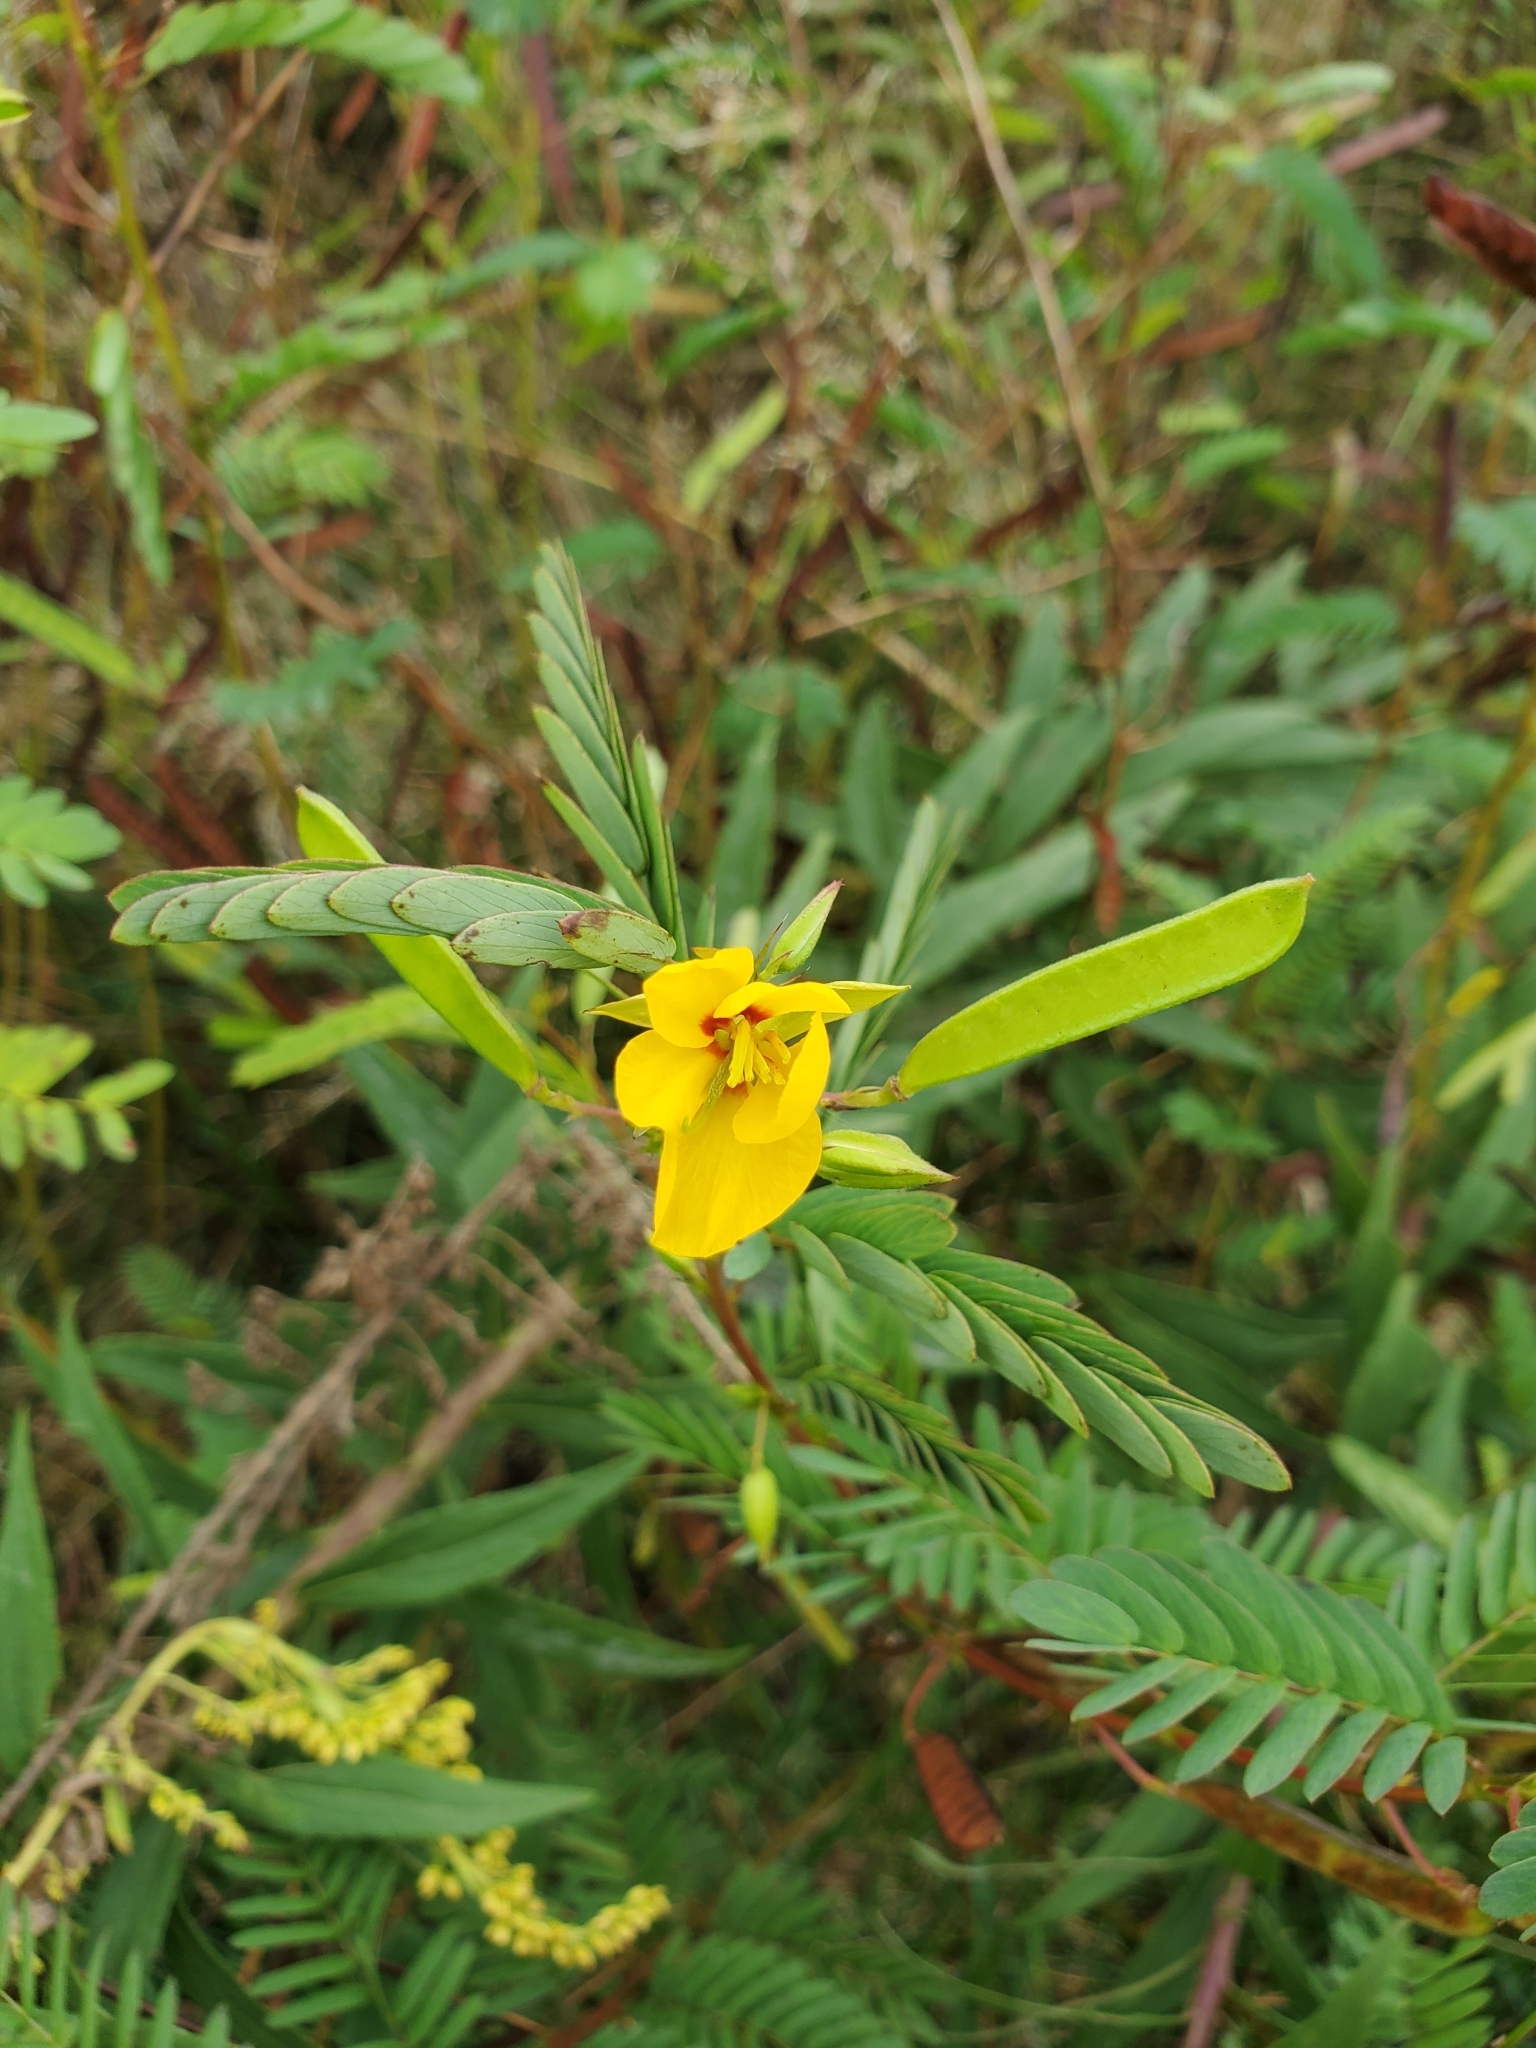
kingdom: Plantae
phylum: Tracheophyta
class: Magnoliopsida
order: Fabales
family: Fabaceae
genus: Chamaecrista
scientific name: Chamaecrista fasciculata
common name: Golden cassia
